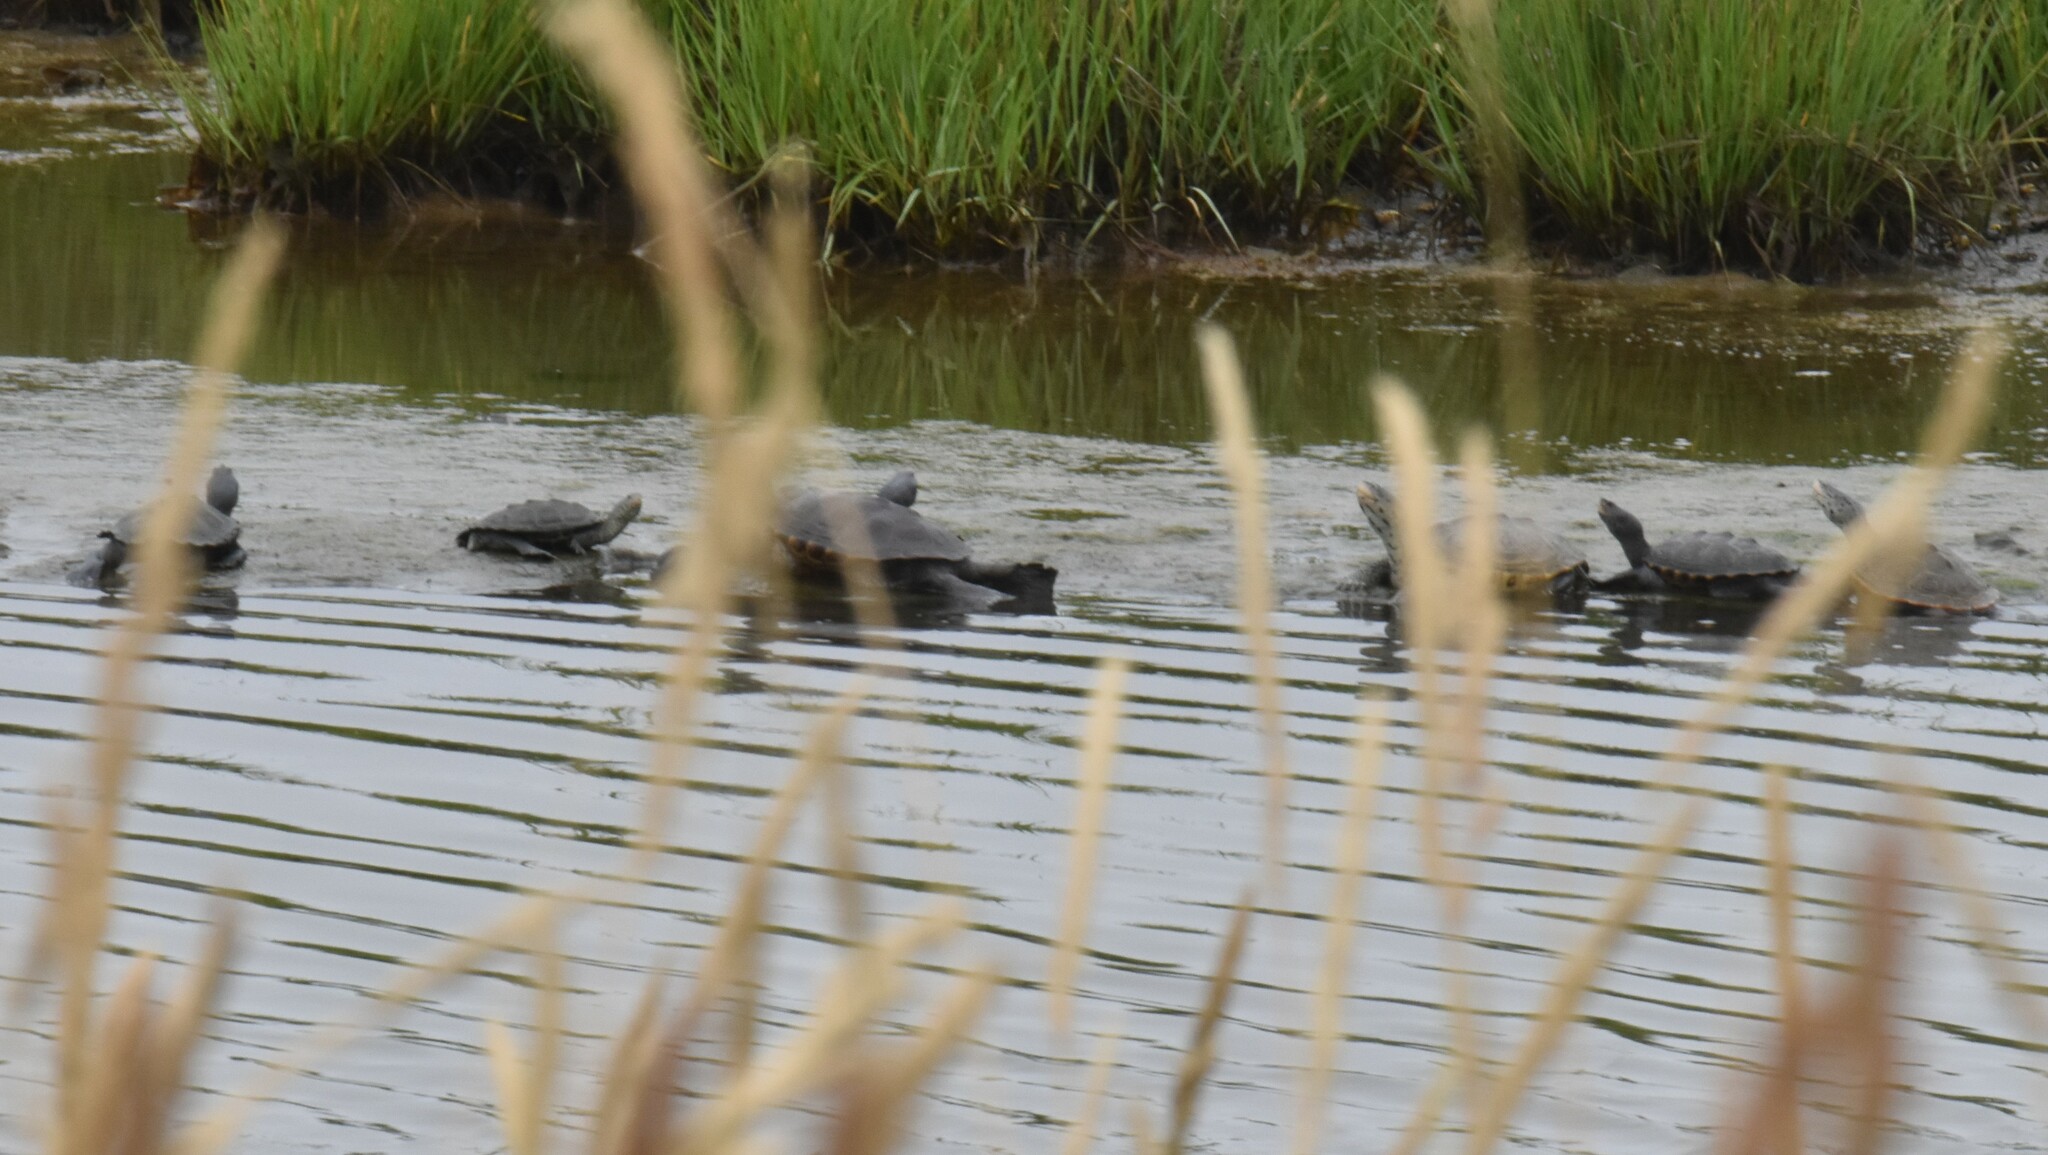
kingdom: Animalia
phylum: Chordata
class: Testudines
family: Emydidae
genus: Malaclemys
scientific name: Malaclemys terrapin
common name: Diamondback terrapin
